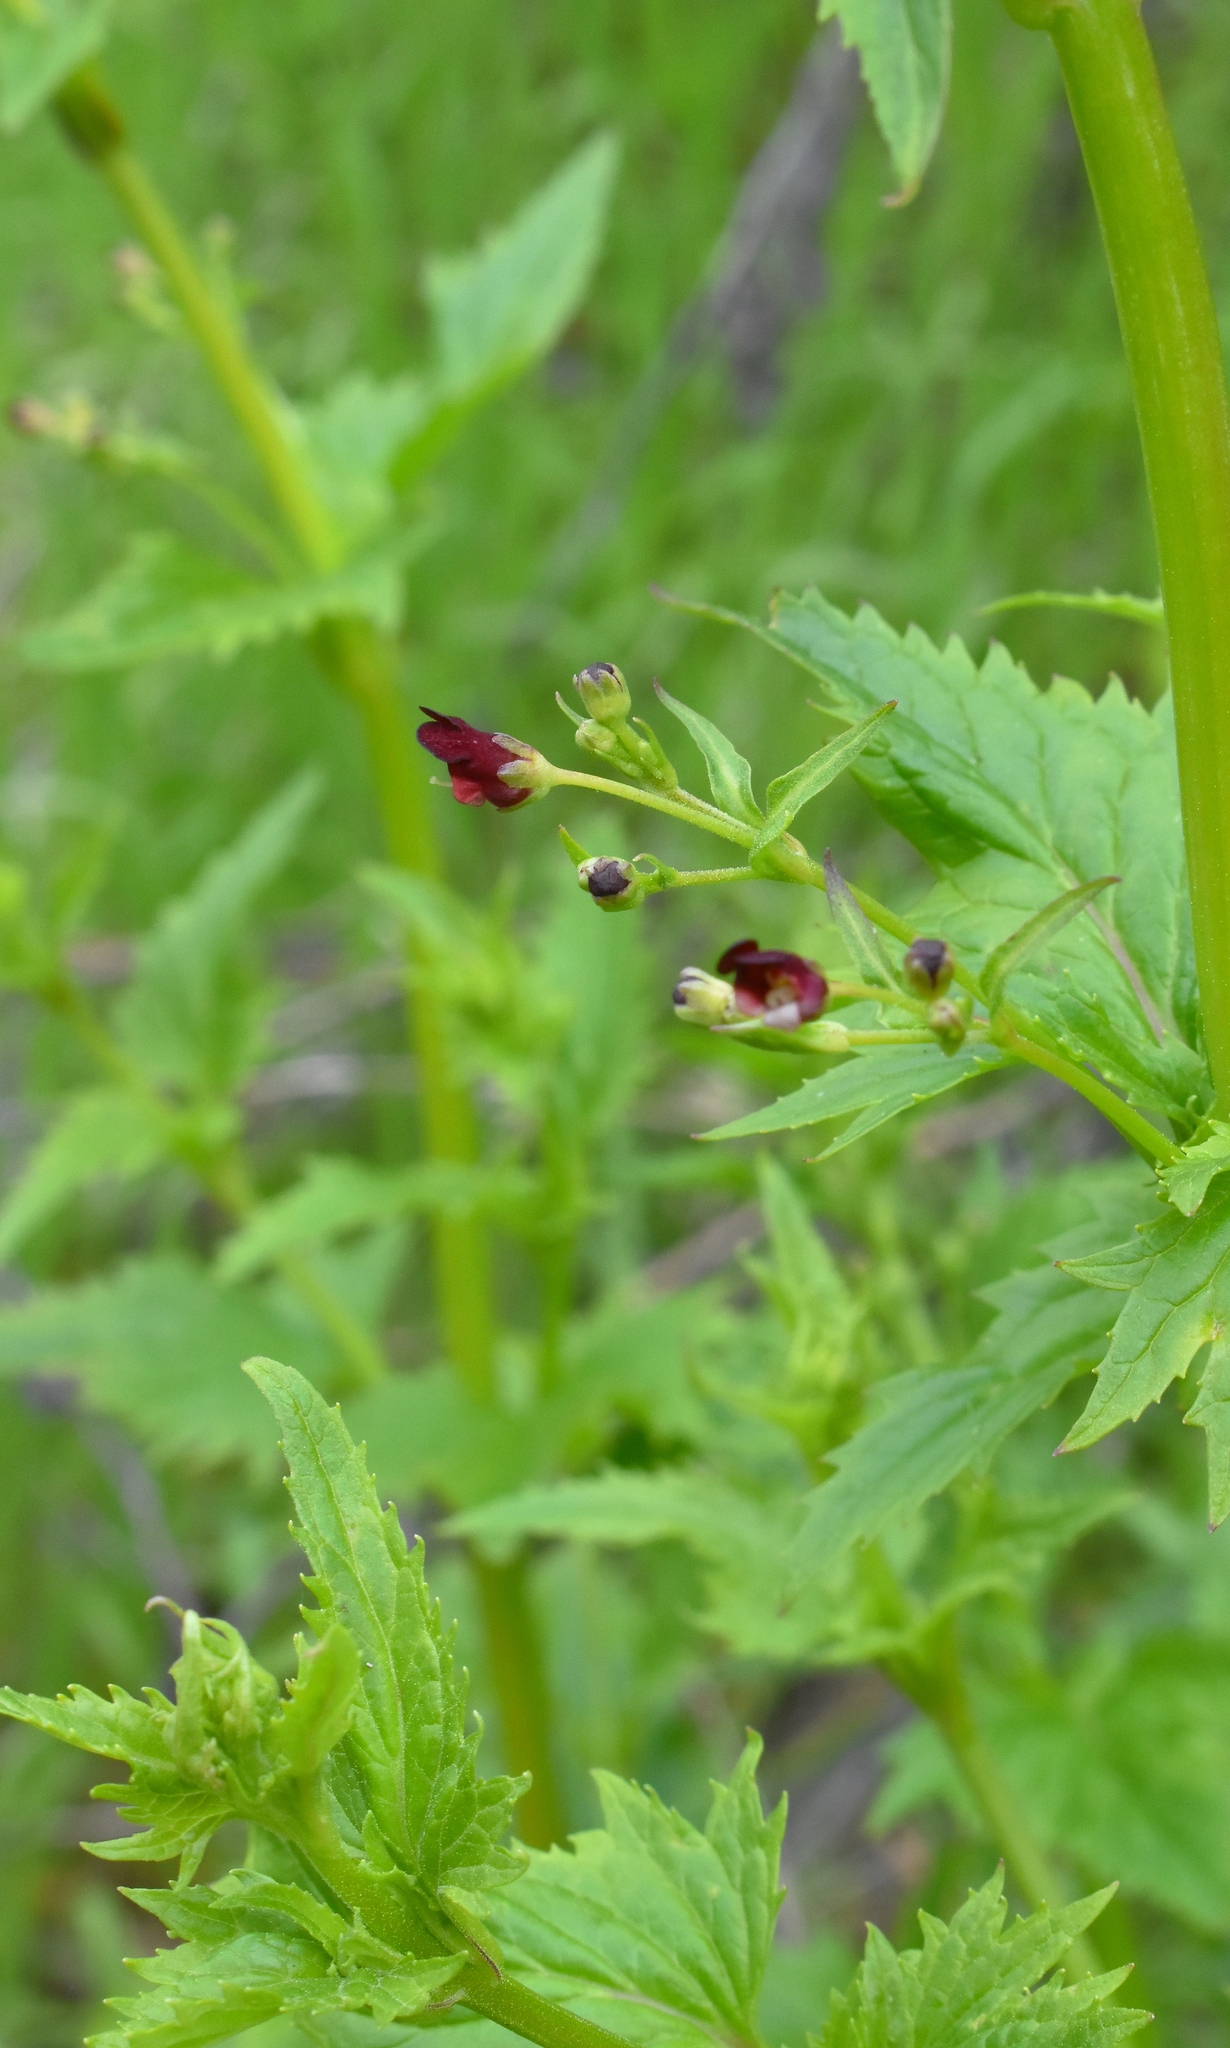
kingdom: Plantae
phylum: Tracheophyta
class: Magnoliopsida
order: Lamiales
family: Scrophulariaceae
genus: Scrophularia
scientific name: Scrophularia californica
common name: California figwort
